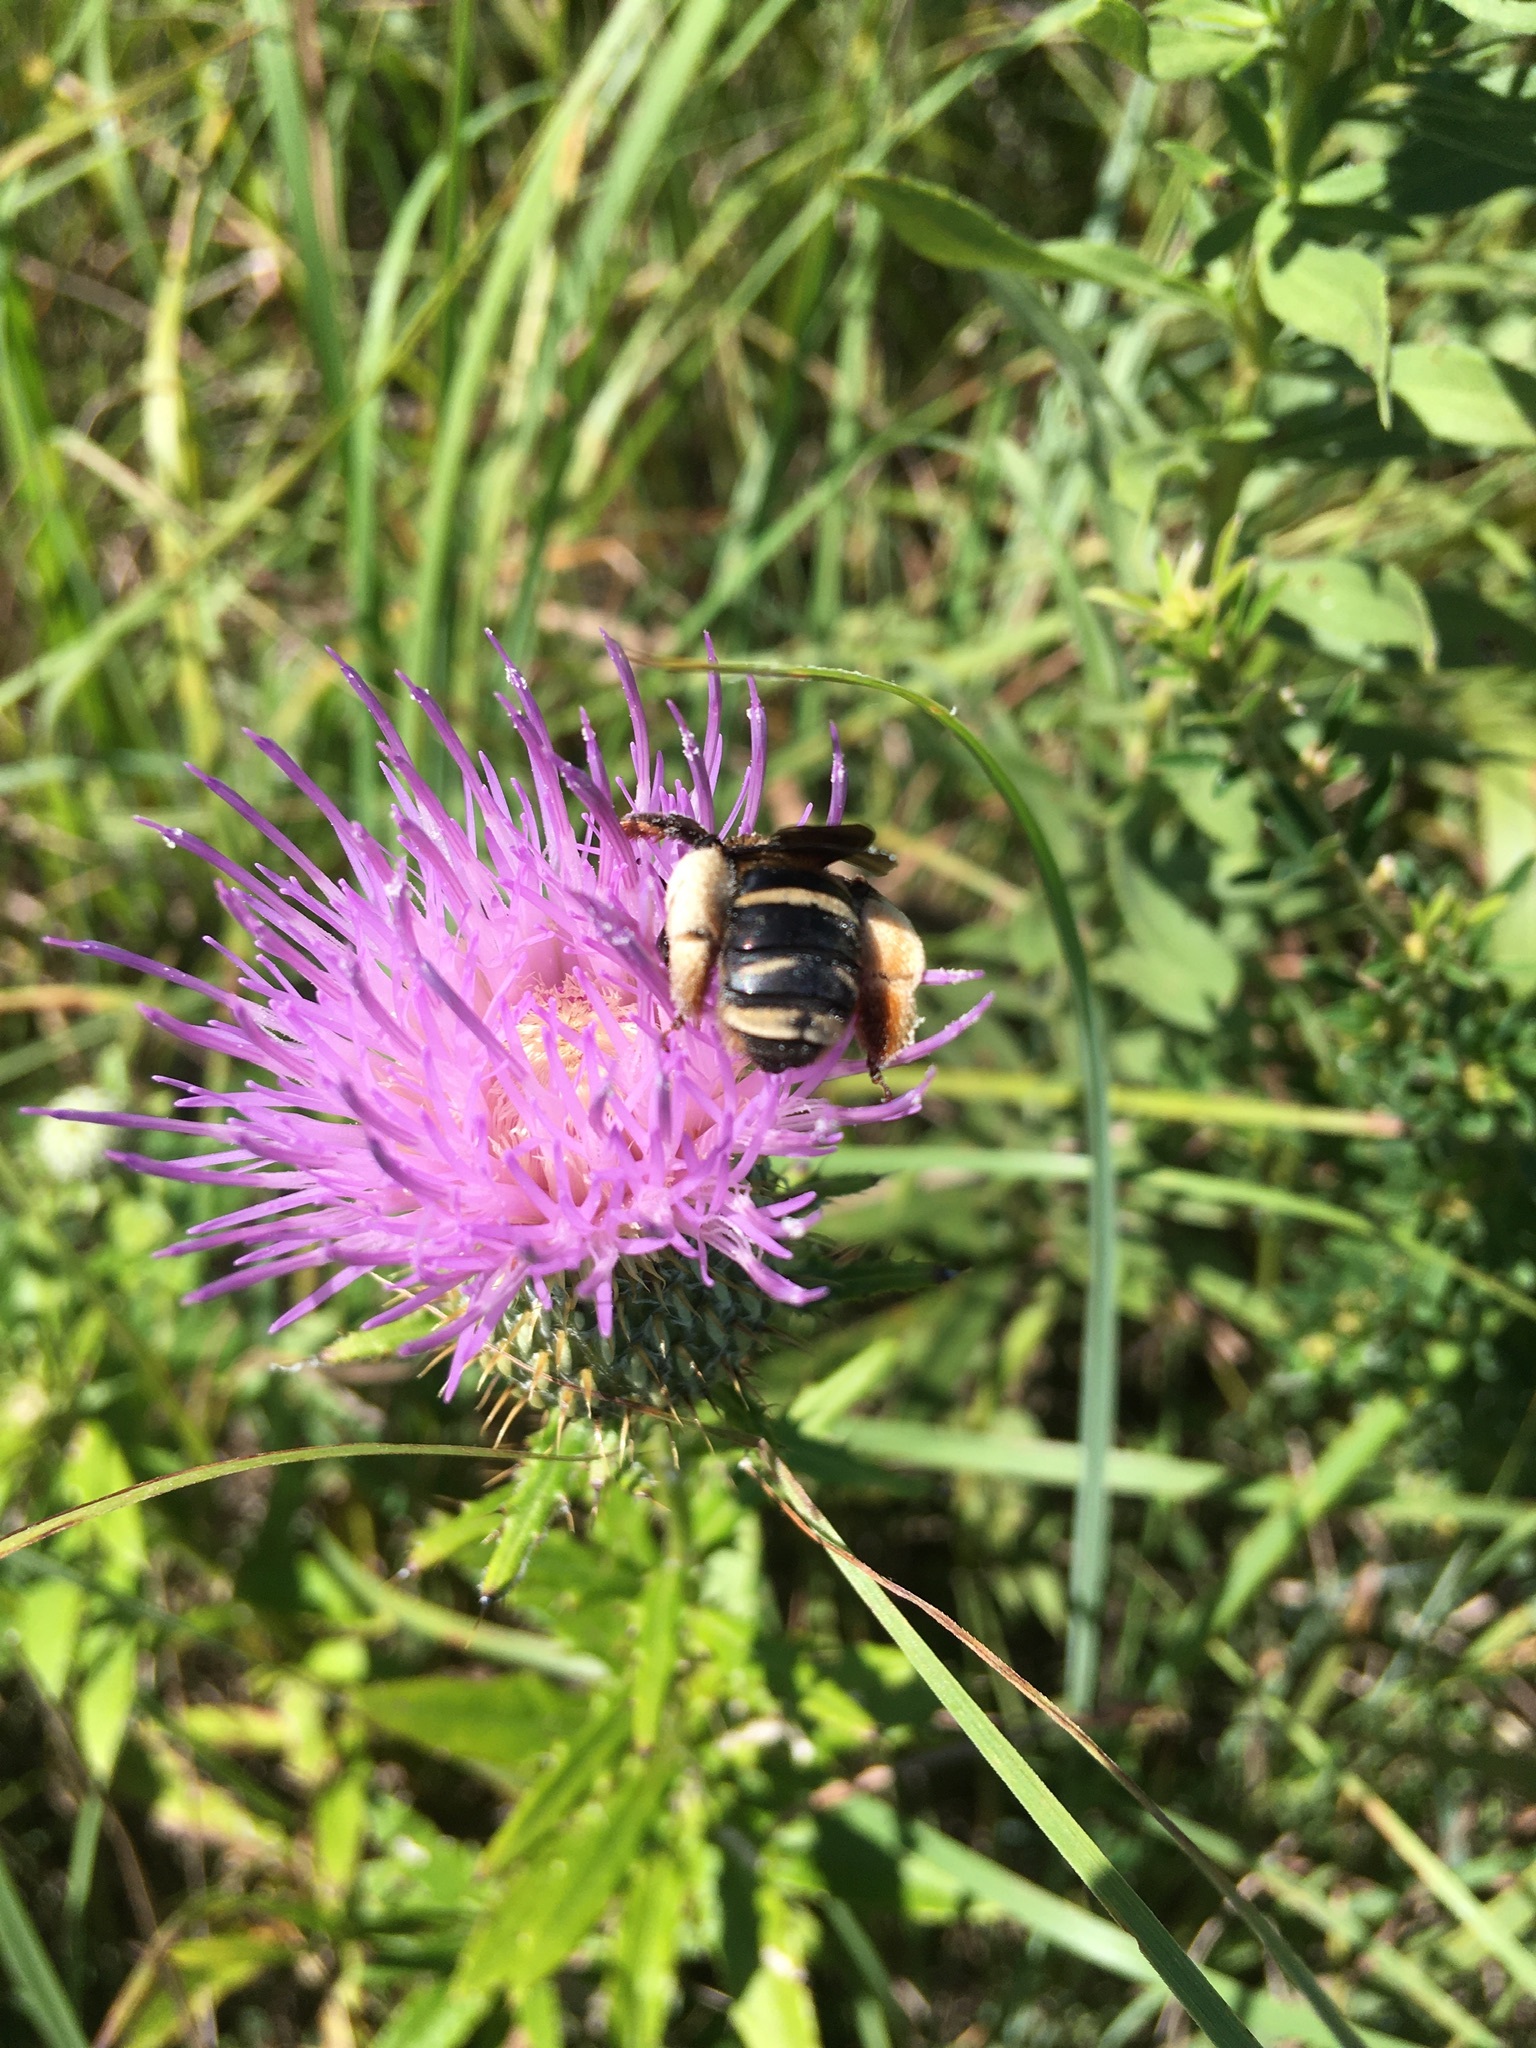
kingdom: Animalia
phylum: Arthropoda
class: Insecta
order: Hymenoptera
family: Apidae
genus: Svastra
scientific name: Svastra obliqua
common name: Oblique longhorn
